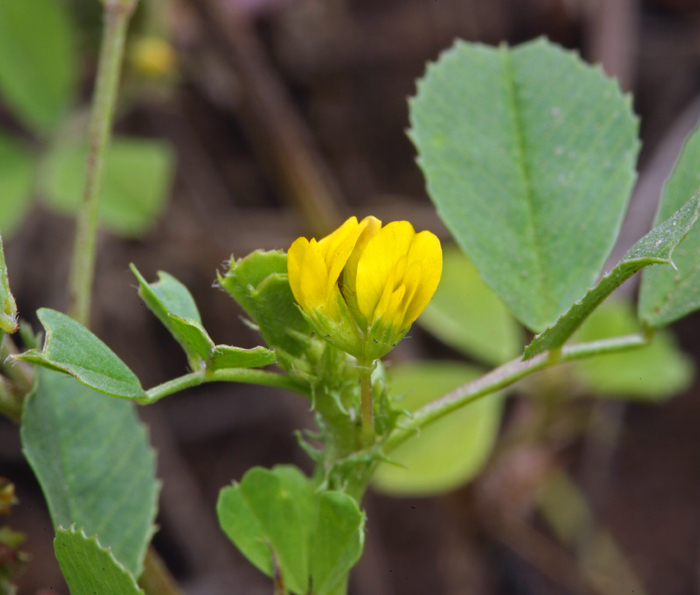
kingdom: Plantae
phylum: Tracheophyta
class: Magnoliopsida
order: Fabales
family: Fabaceae
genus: Medicago
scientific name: Medicago polymorpha
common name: Burclover
